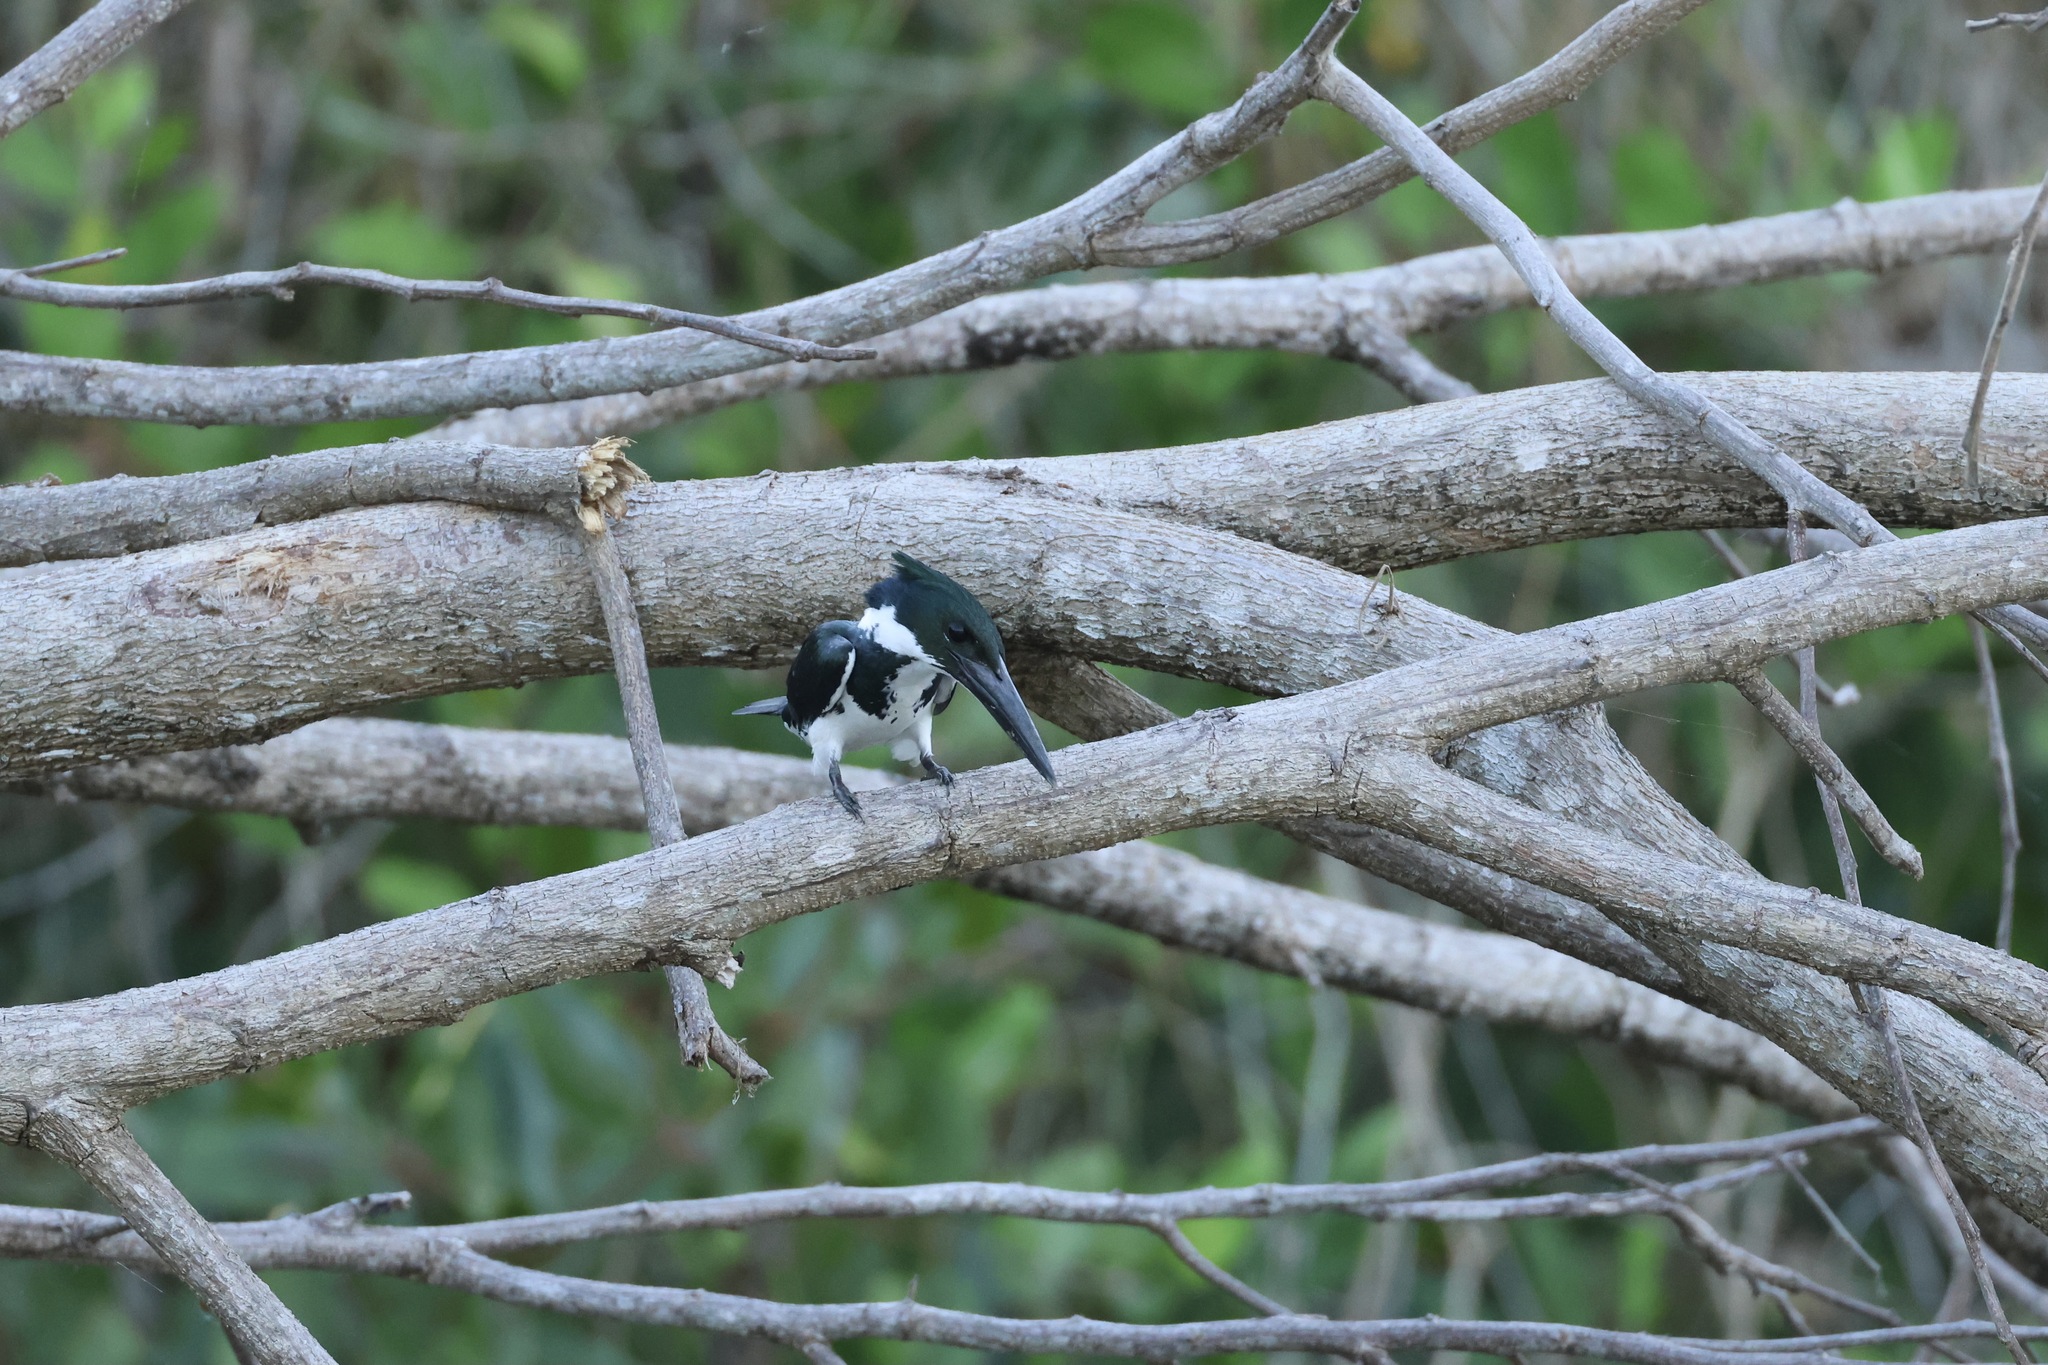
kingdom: Animalia
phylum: Chordata
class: Aves
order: Coraciiformes
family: Alcedinidae
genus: Chloroceryle
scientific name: Chloroceryle amazona
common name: Amazon kingfisher
